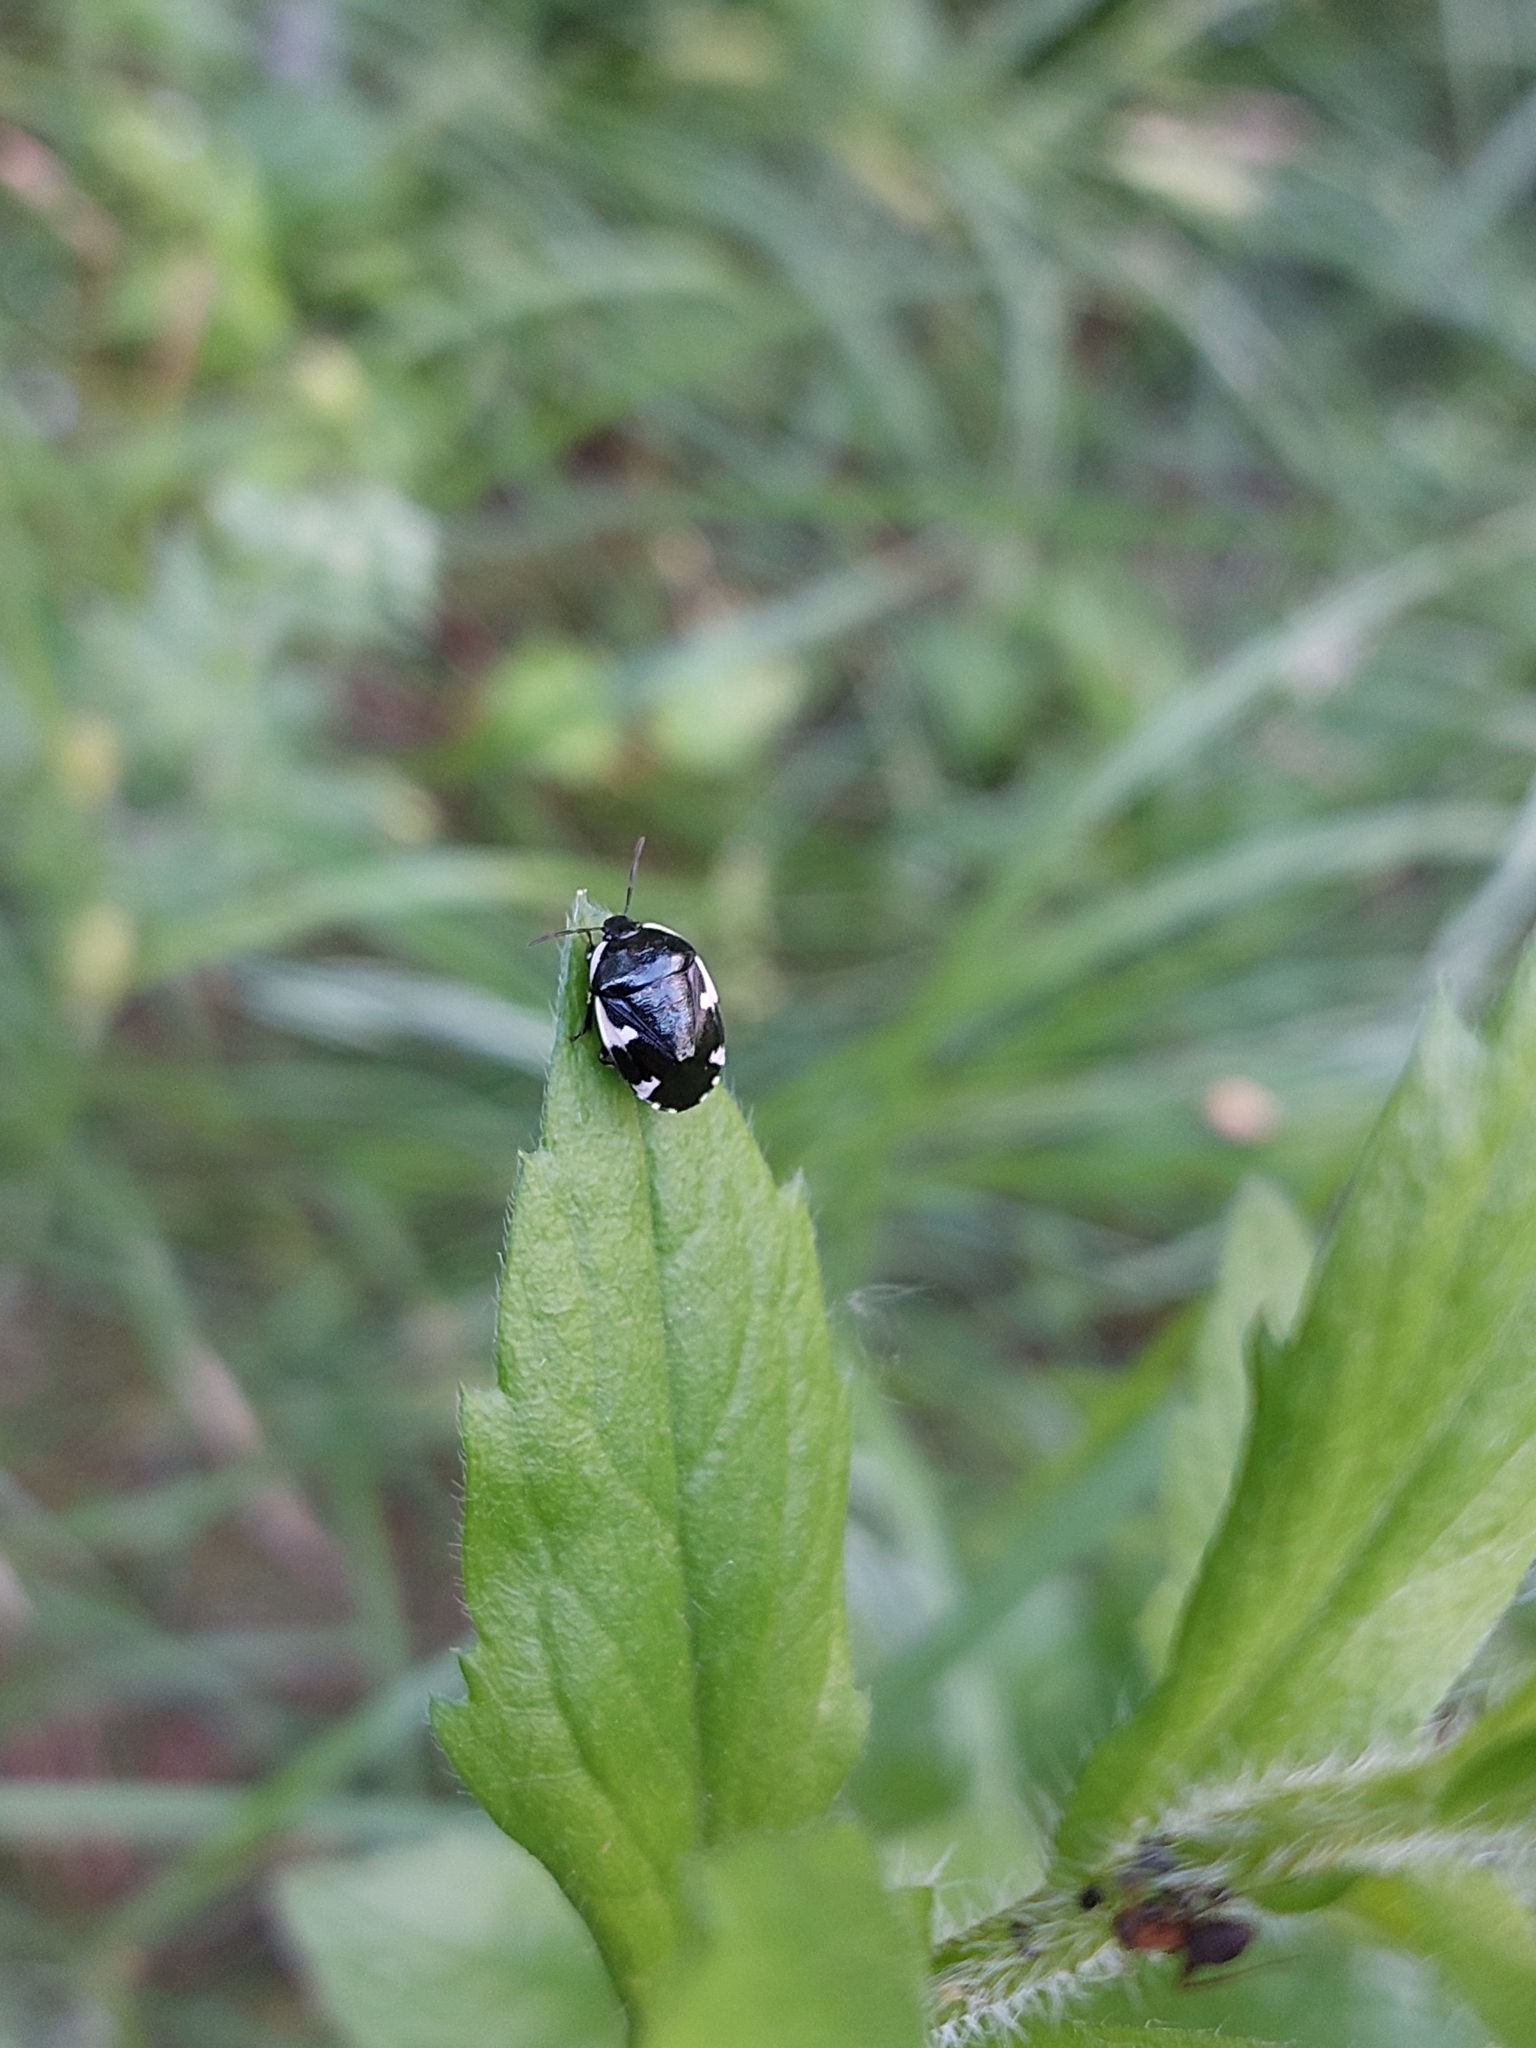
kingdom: Animalia
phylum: Arthropoda
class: Insecta
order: Hemiptera
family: Cydnidae
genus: Tritomegas
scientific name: Tritomegas sexmaculatus
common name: Rambur's pied shieldbug
